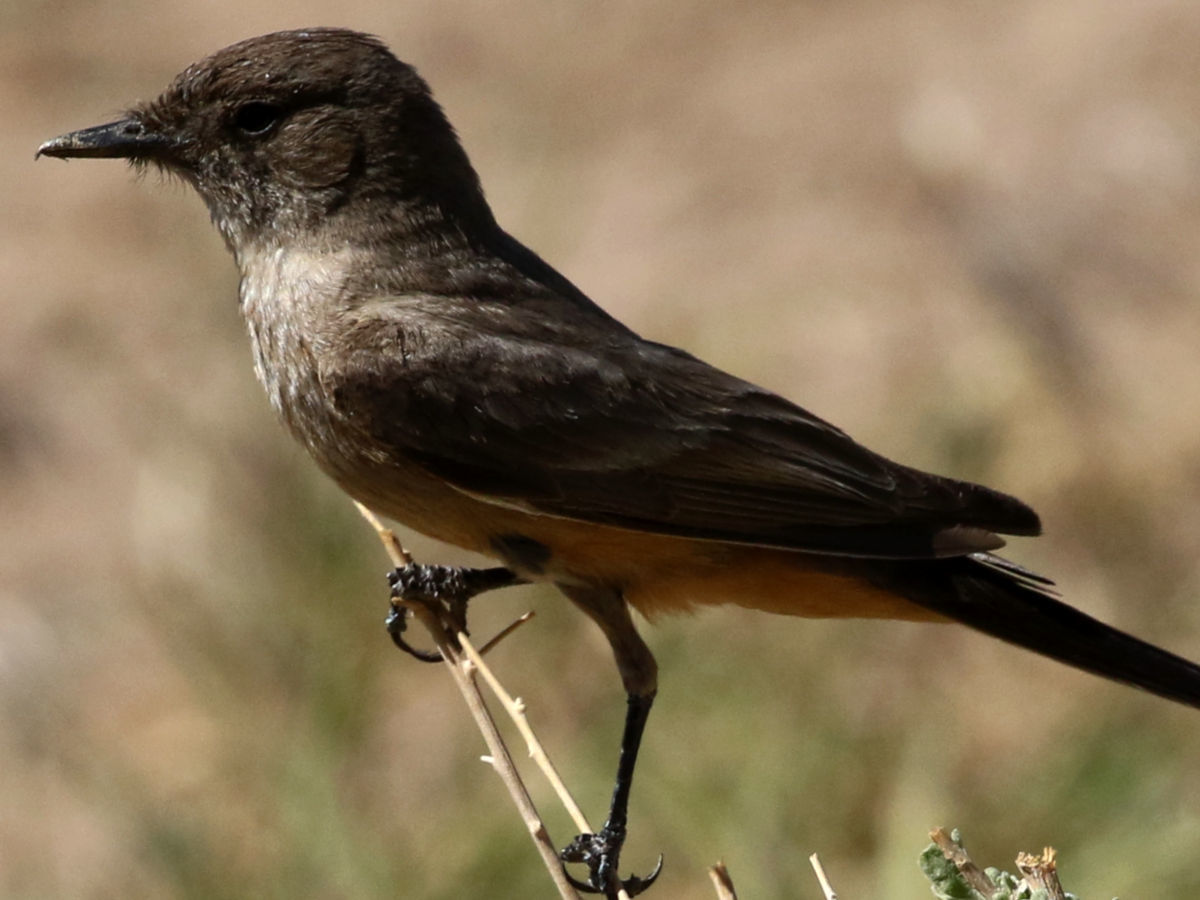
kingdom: Animalia
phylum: Chordata
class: Aves
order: Passeriformes
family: Tyrannidae
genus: Sayornis
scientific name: Sayornis saya
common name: Say's phoebe
